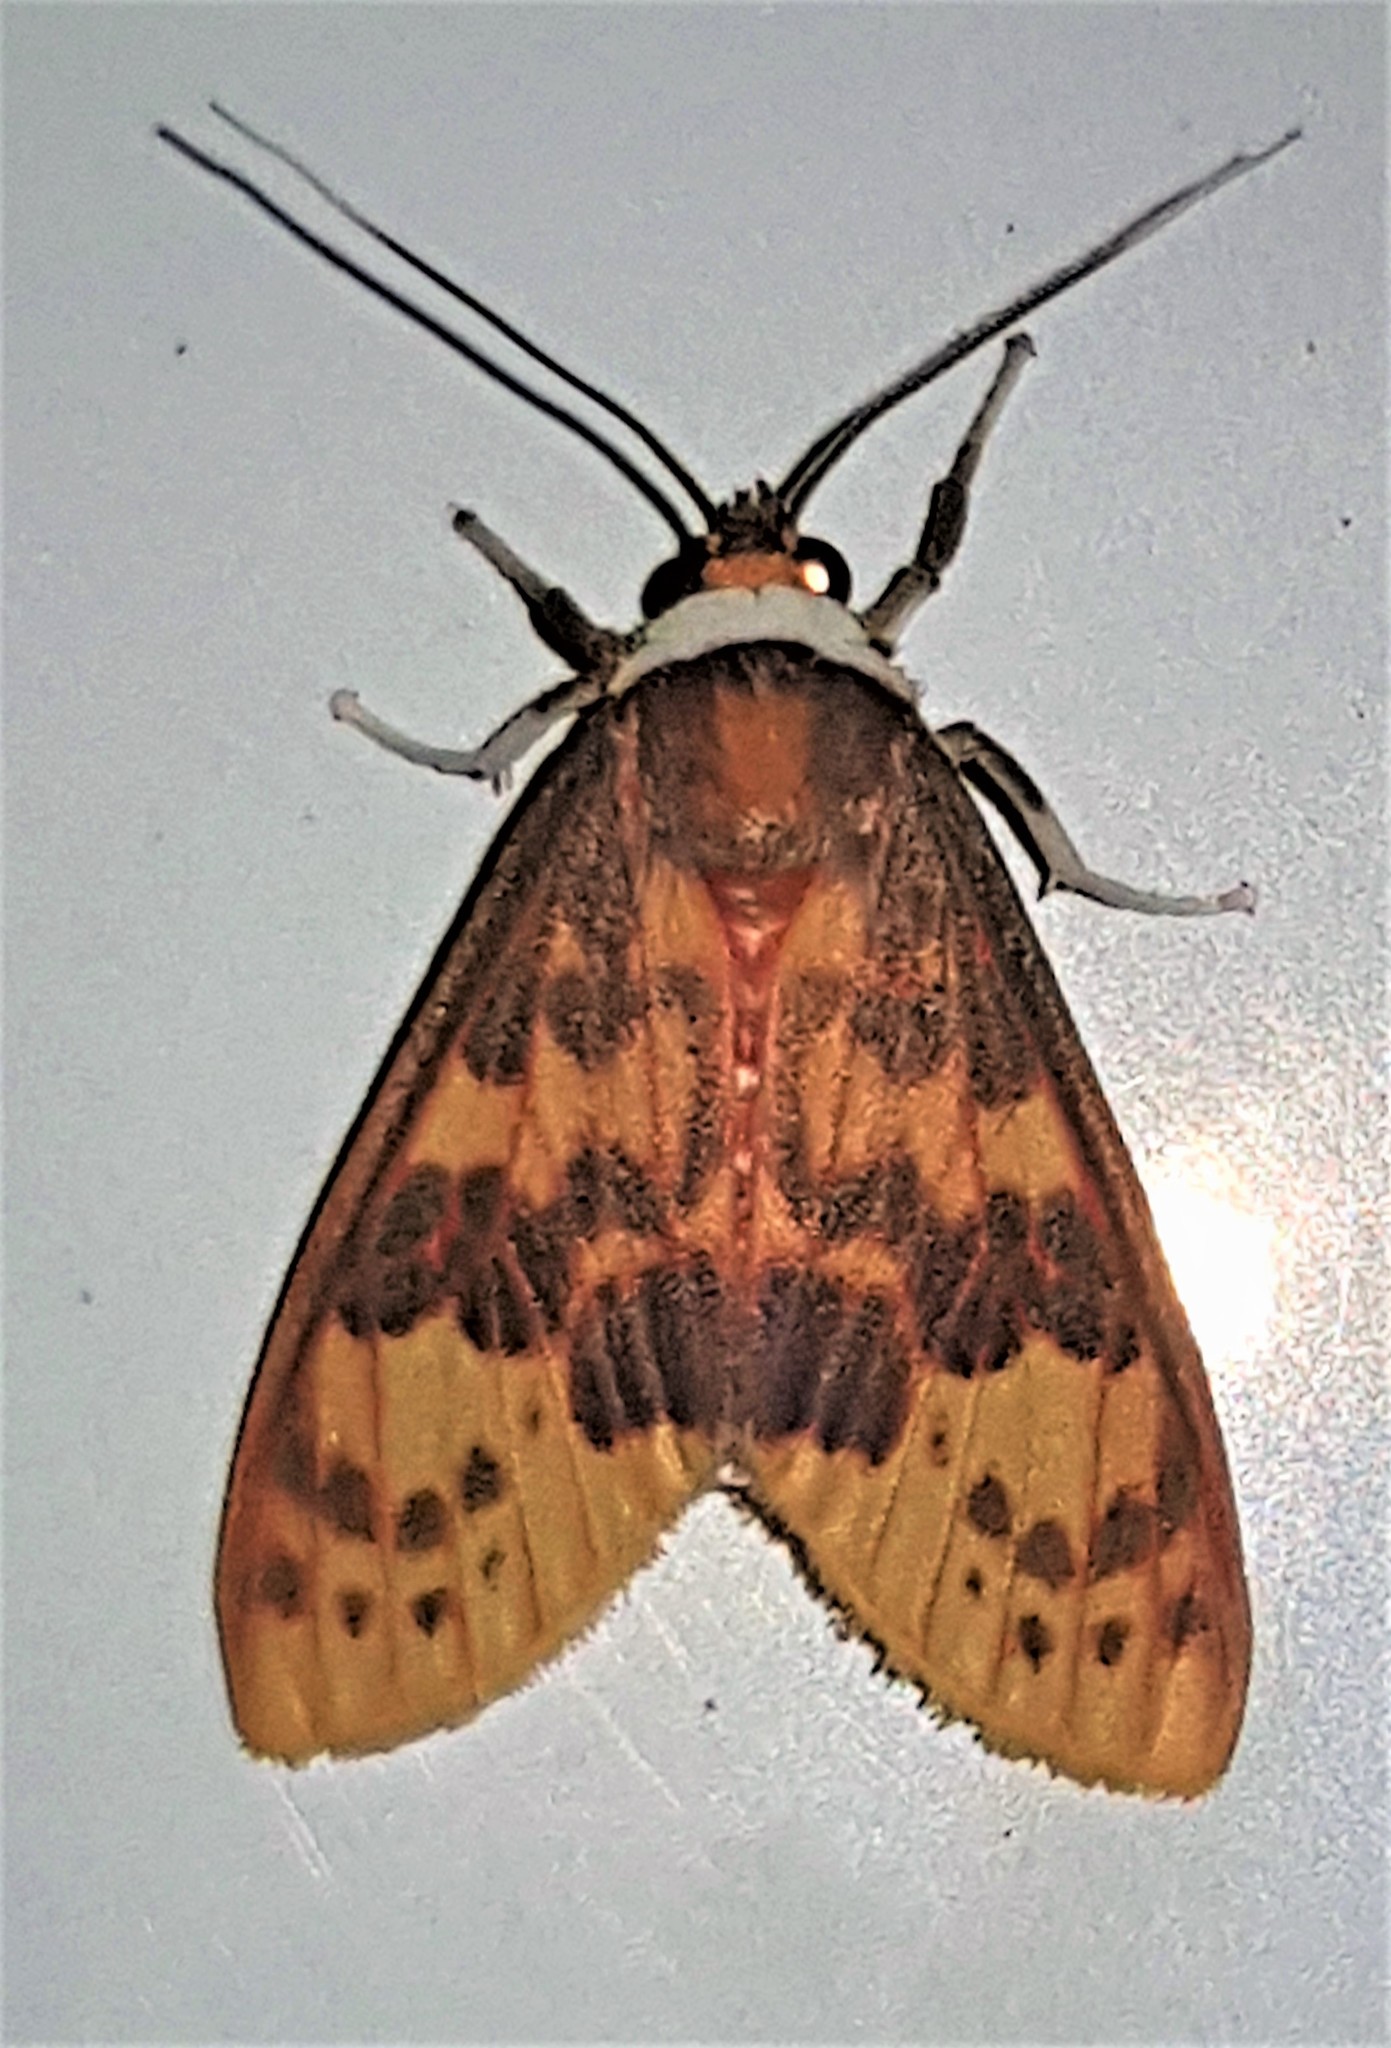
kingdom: Animalia
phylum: Arthropoda
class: Insecta
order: Lepidoptera
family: Erebidae
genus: Evius
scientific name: Evius hippia
